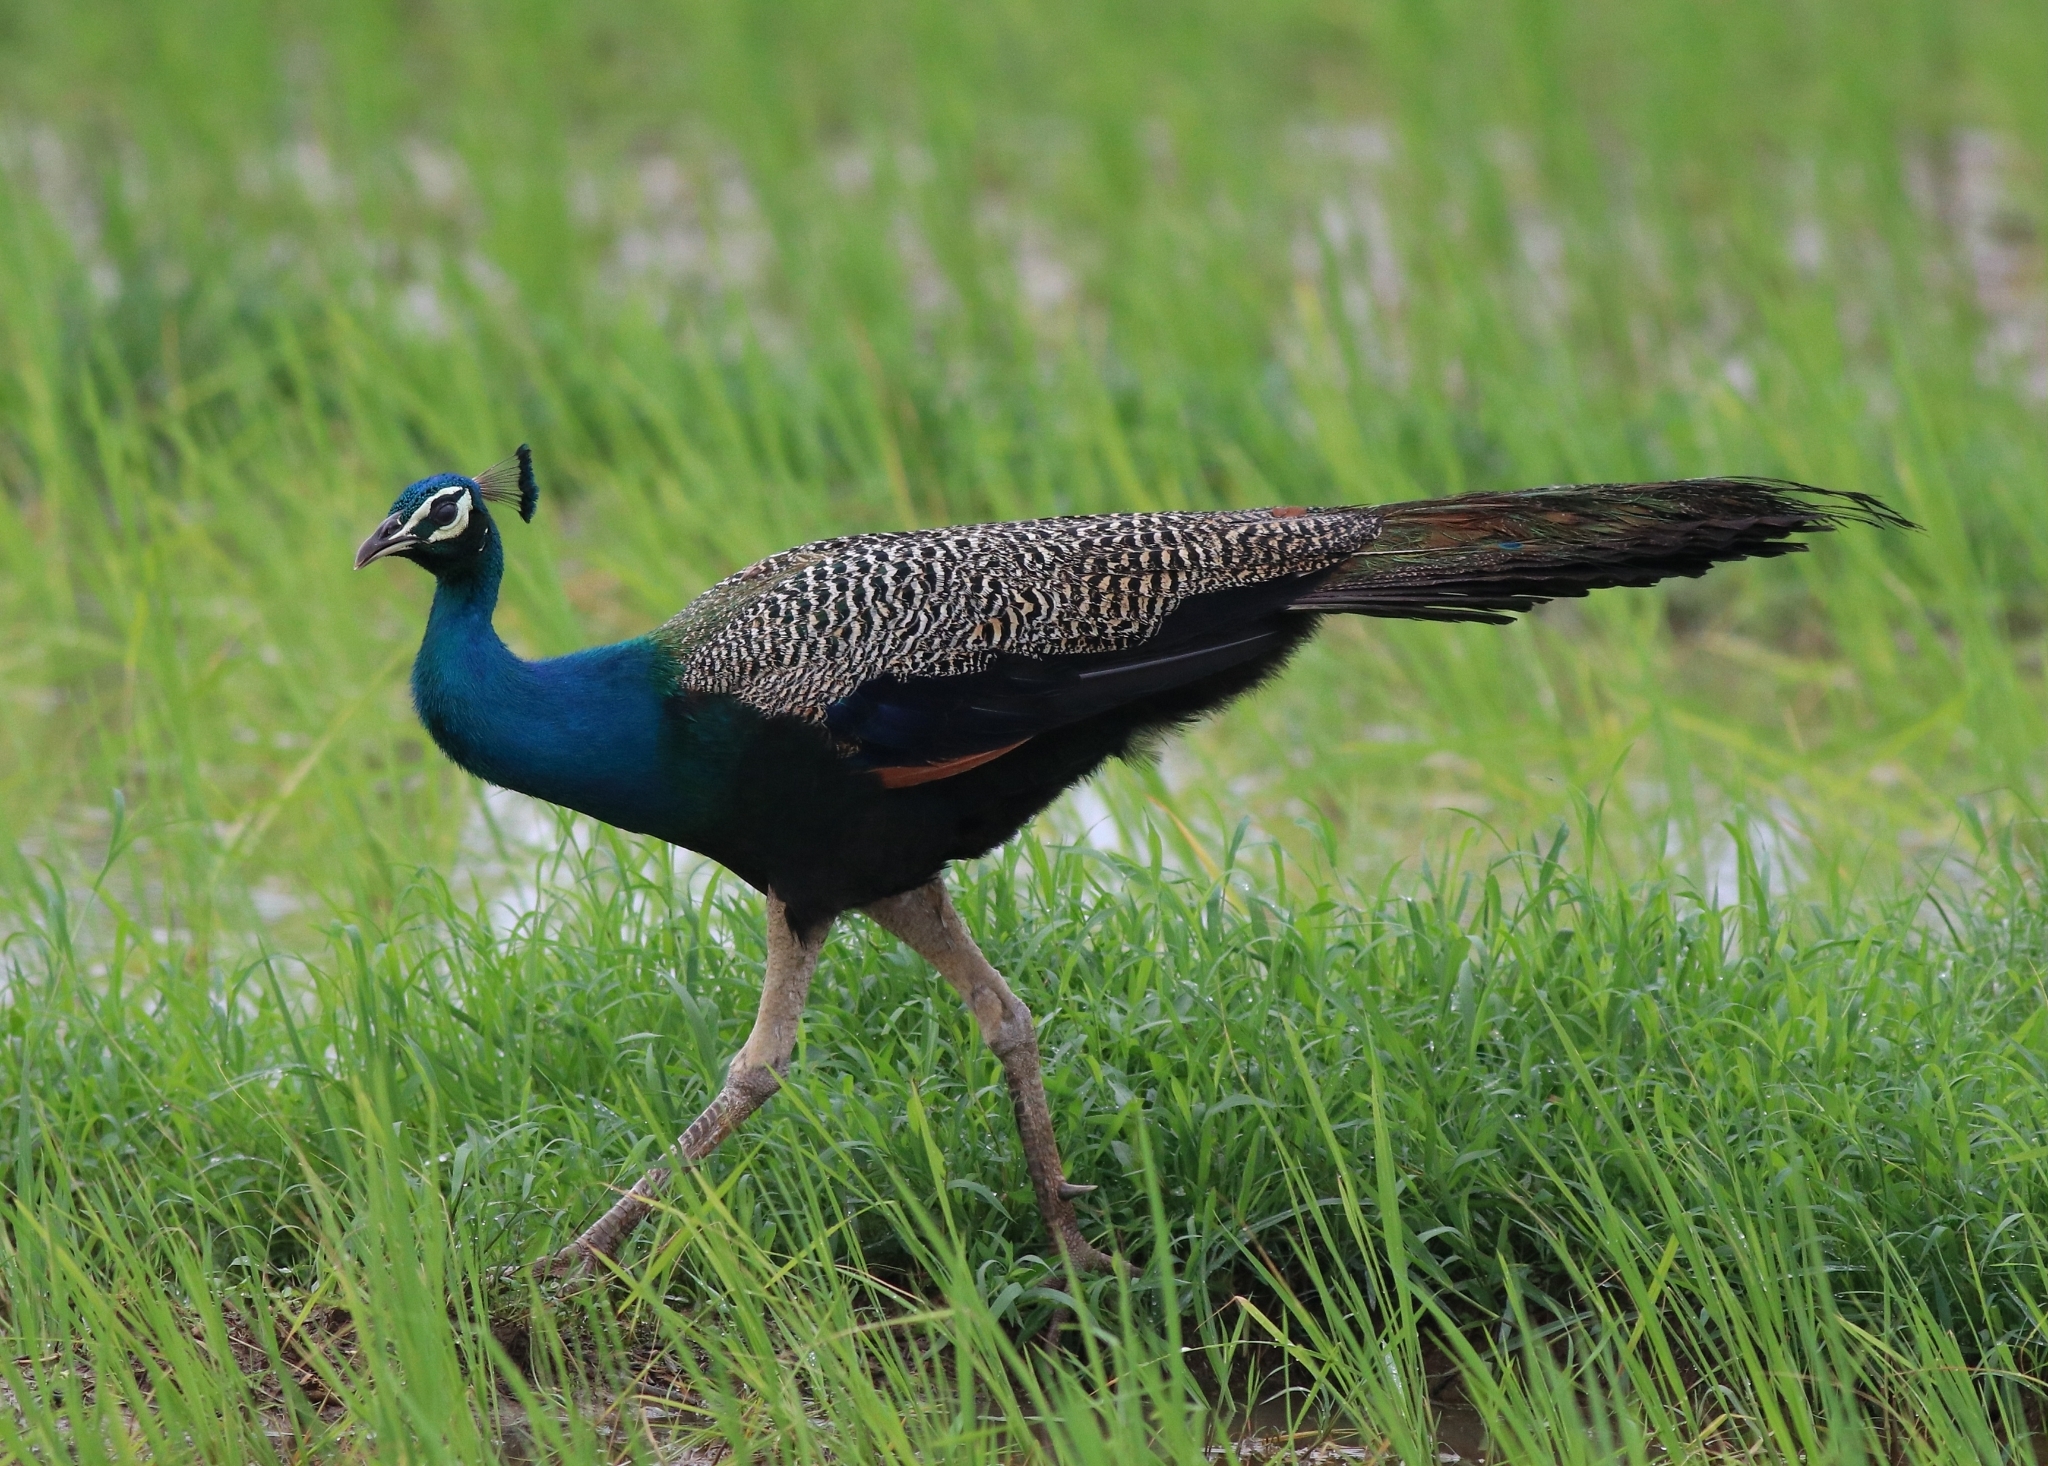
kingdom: Animalia
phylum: Chordata
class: Aves
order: Galliformes
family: Phasianidae
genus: Pavo
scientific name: Pavo cristatus
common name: Indian peafowl
